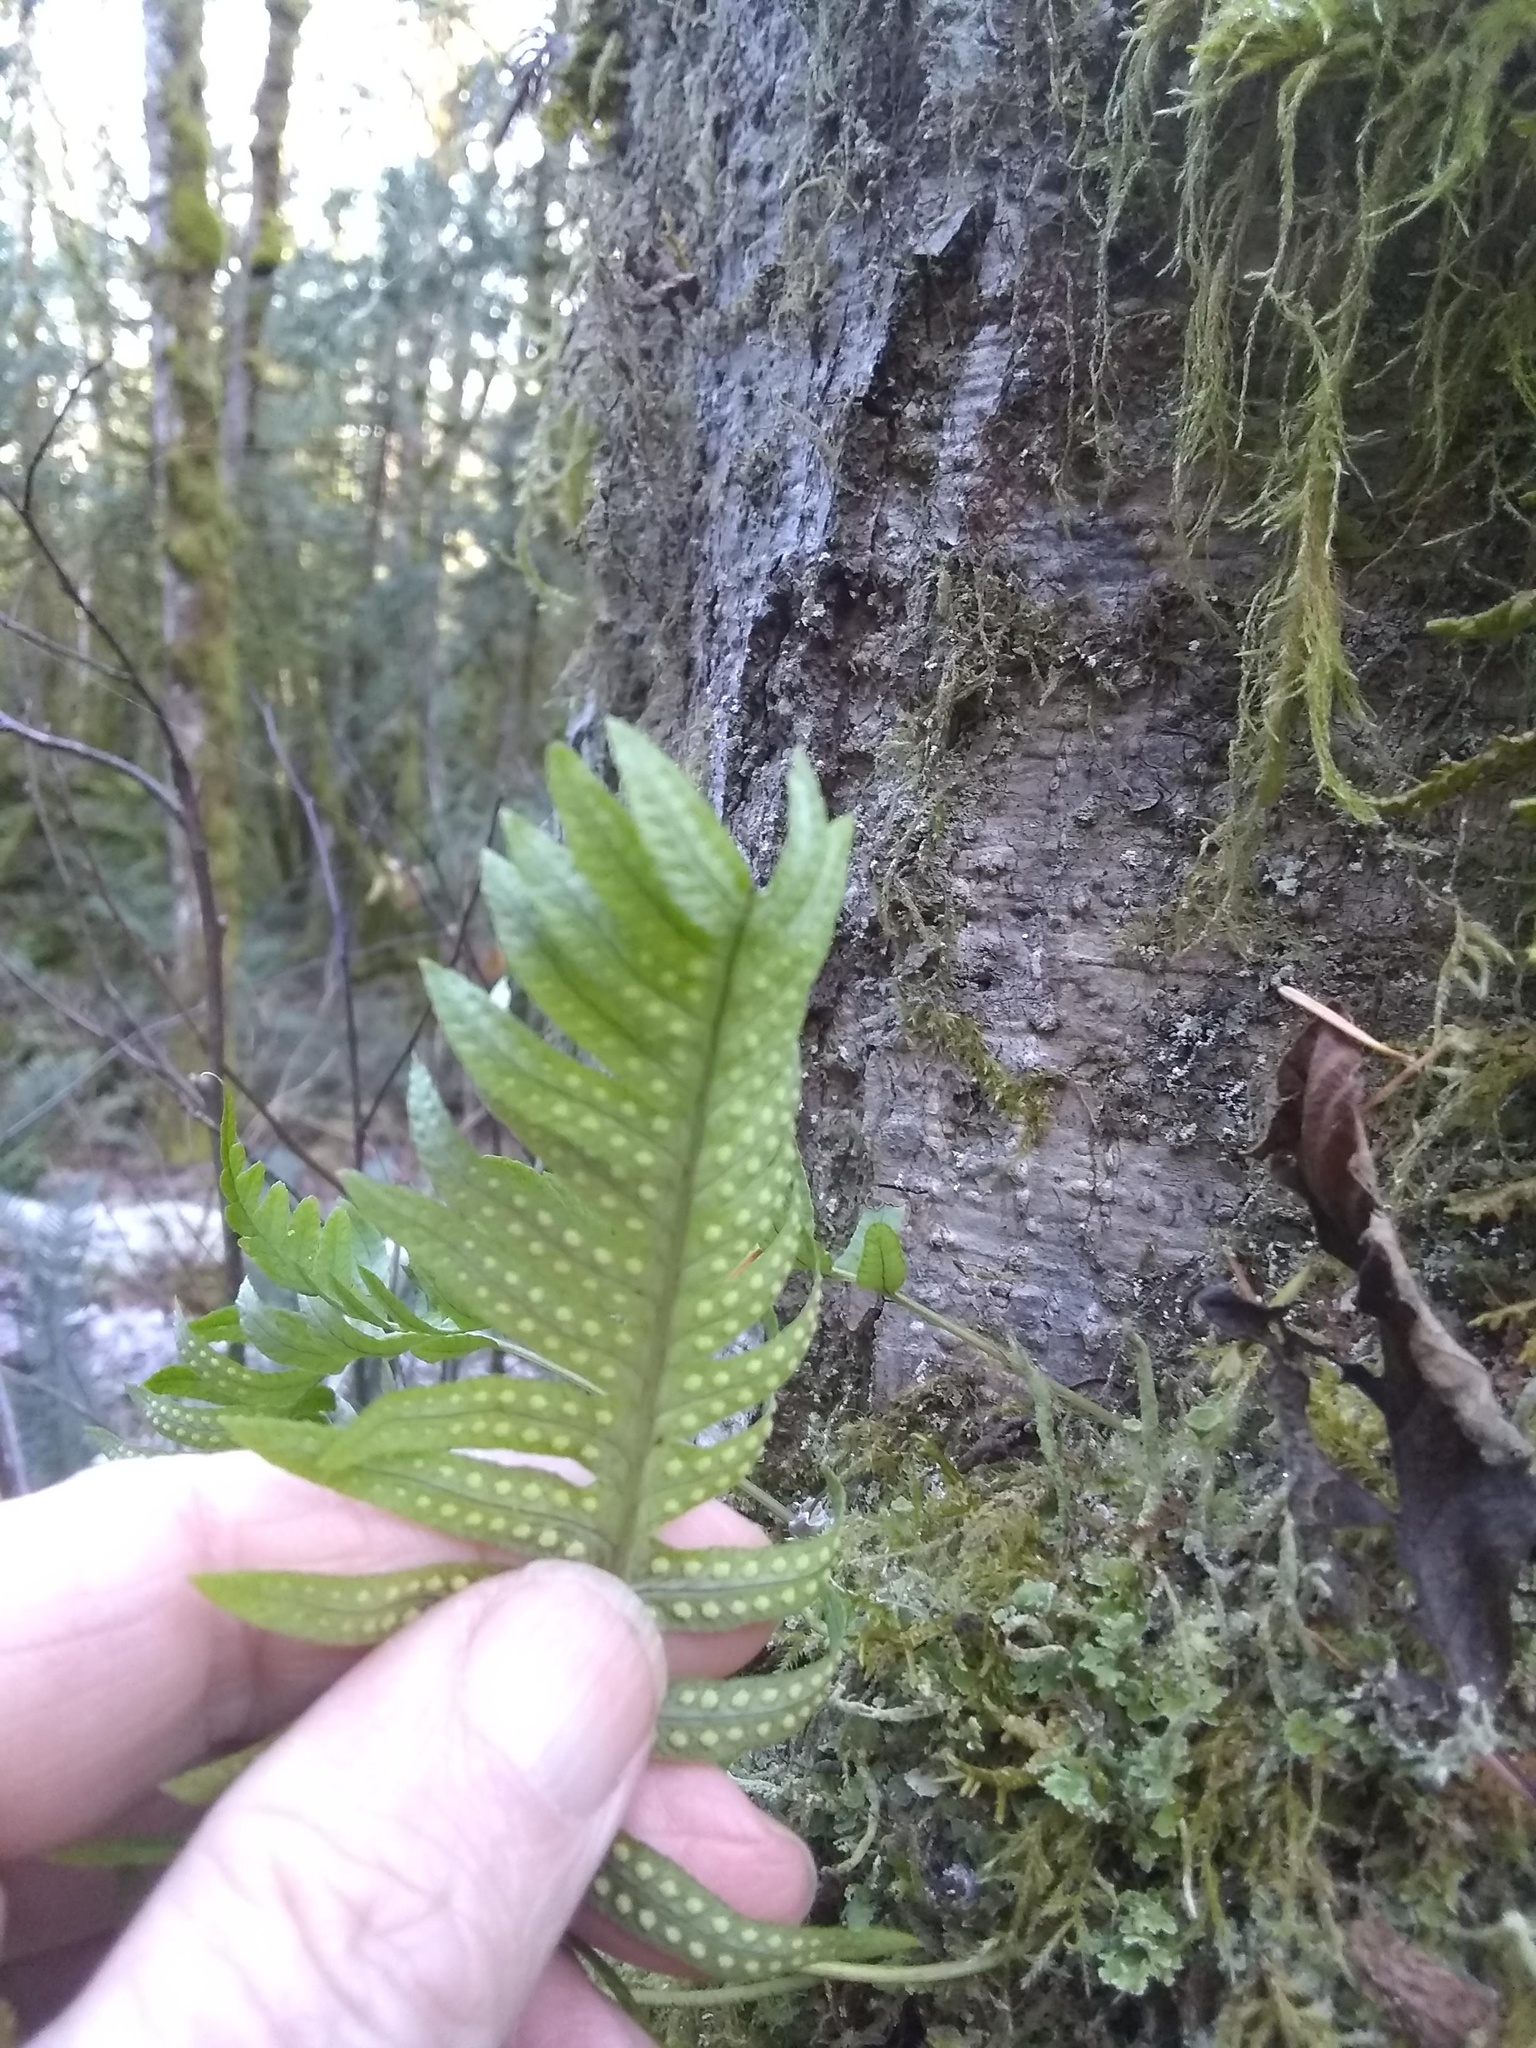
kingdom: Plantae
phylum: Tracheophyta
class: Polypodiopsida
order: Polypodiales
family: Polypodiaceae
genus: Polypodium
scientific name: Polypodium glycyrrhiza
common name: Licorice fern
